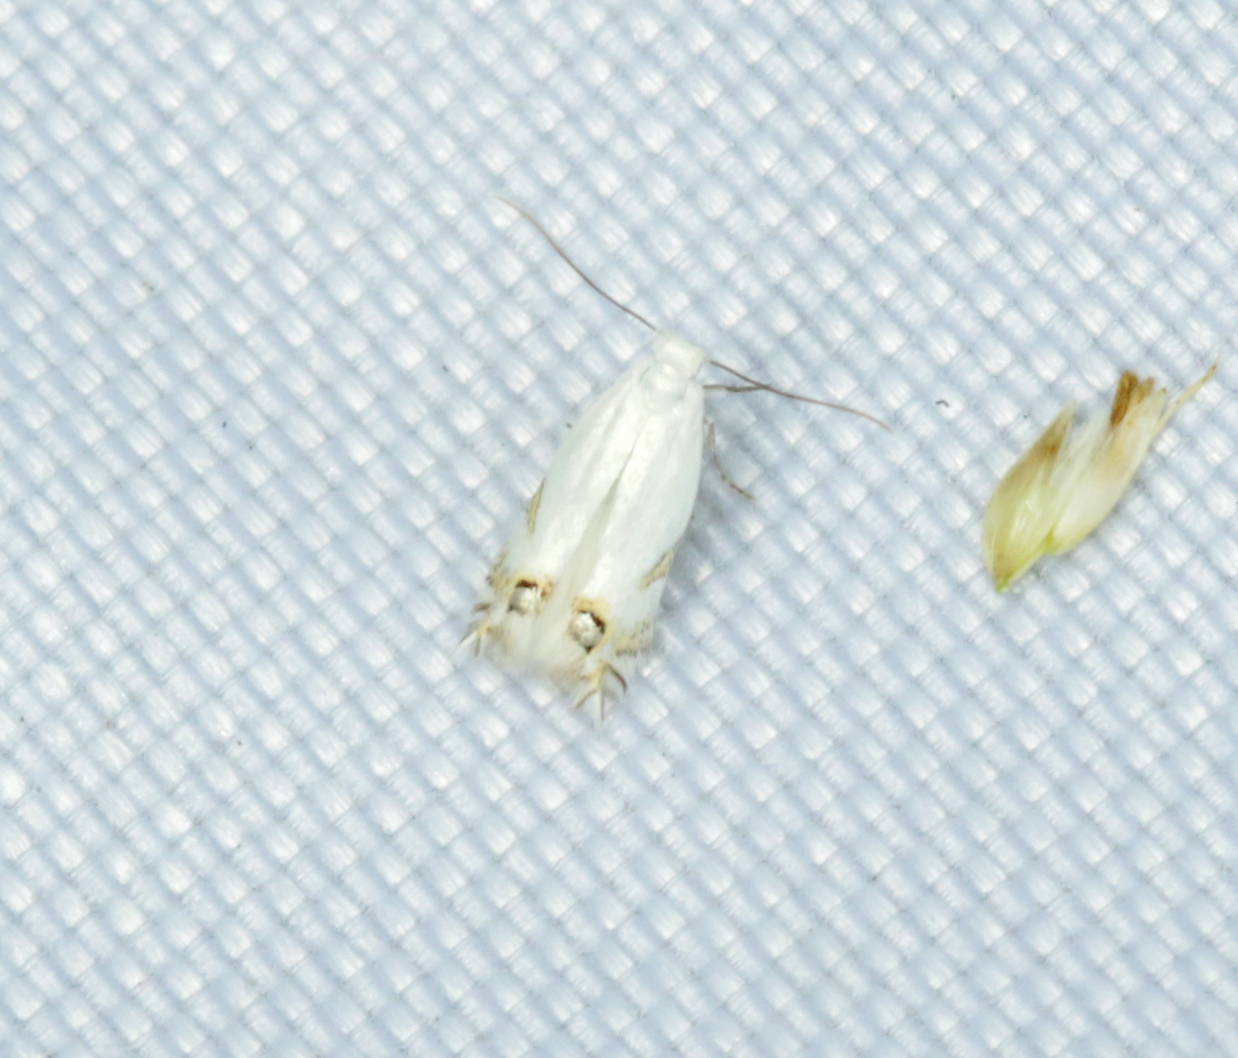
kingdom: Animalia
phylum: Arthropoda
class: Insecta
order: Lepidoptera
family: Lyonetiidae
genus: Leucoptera
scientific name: Leucoptera spartifoliella
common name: Scotch broom twig miner
